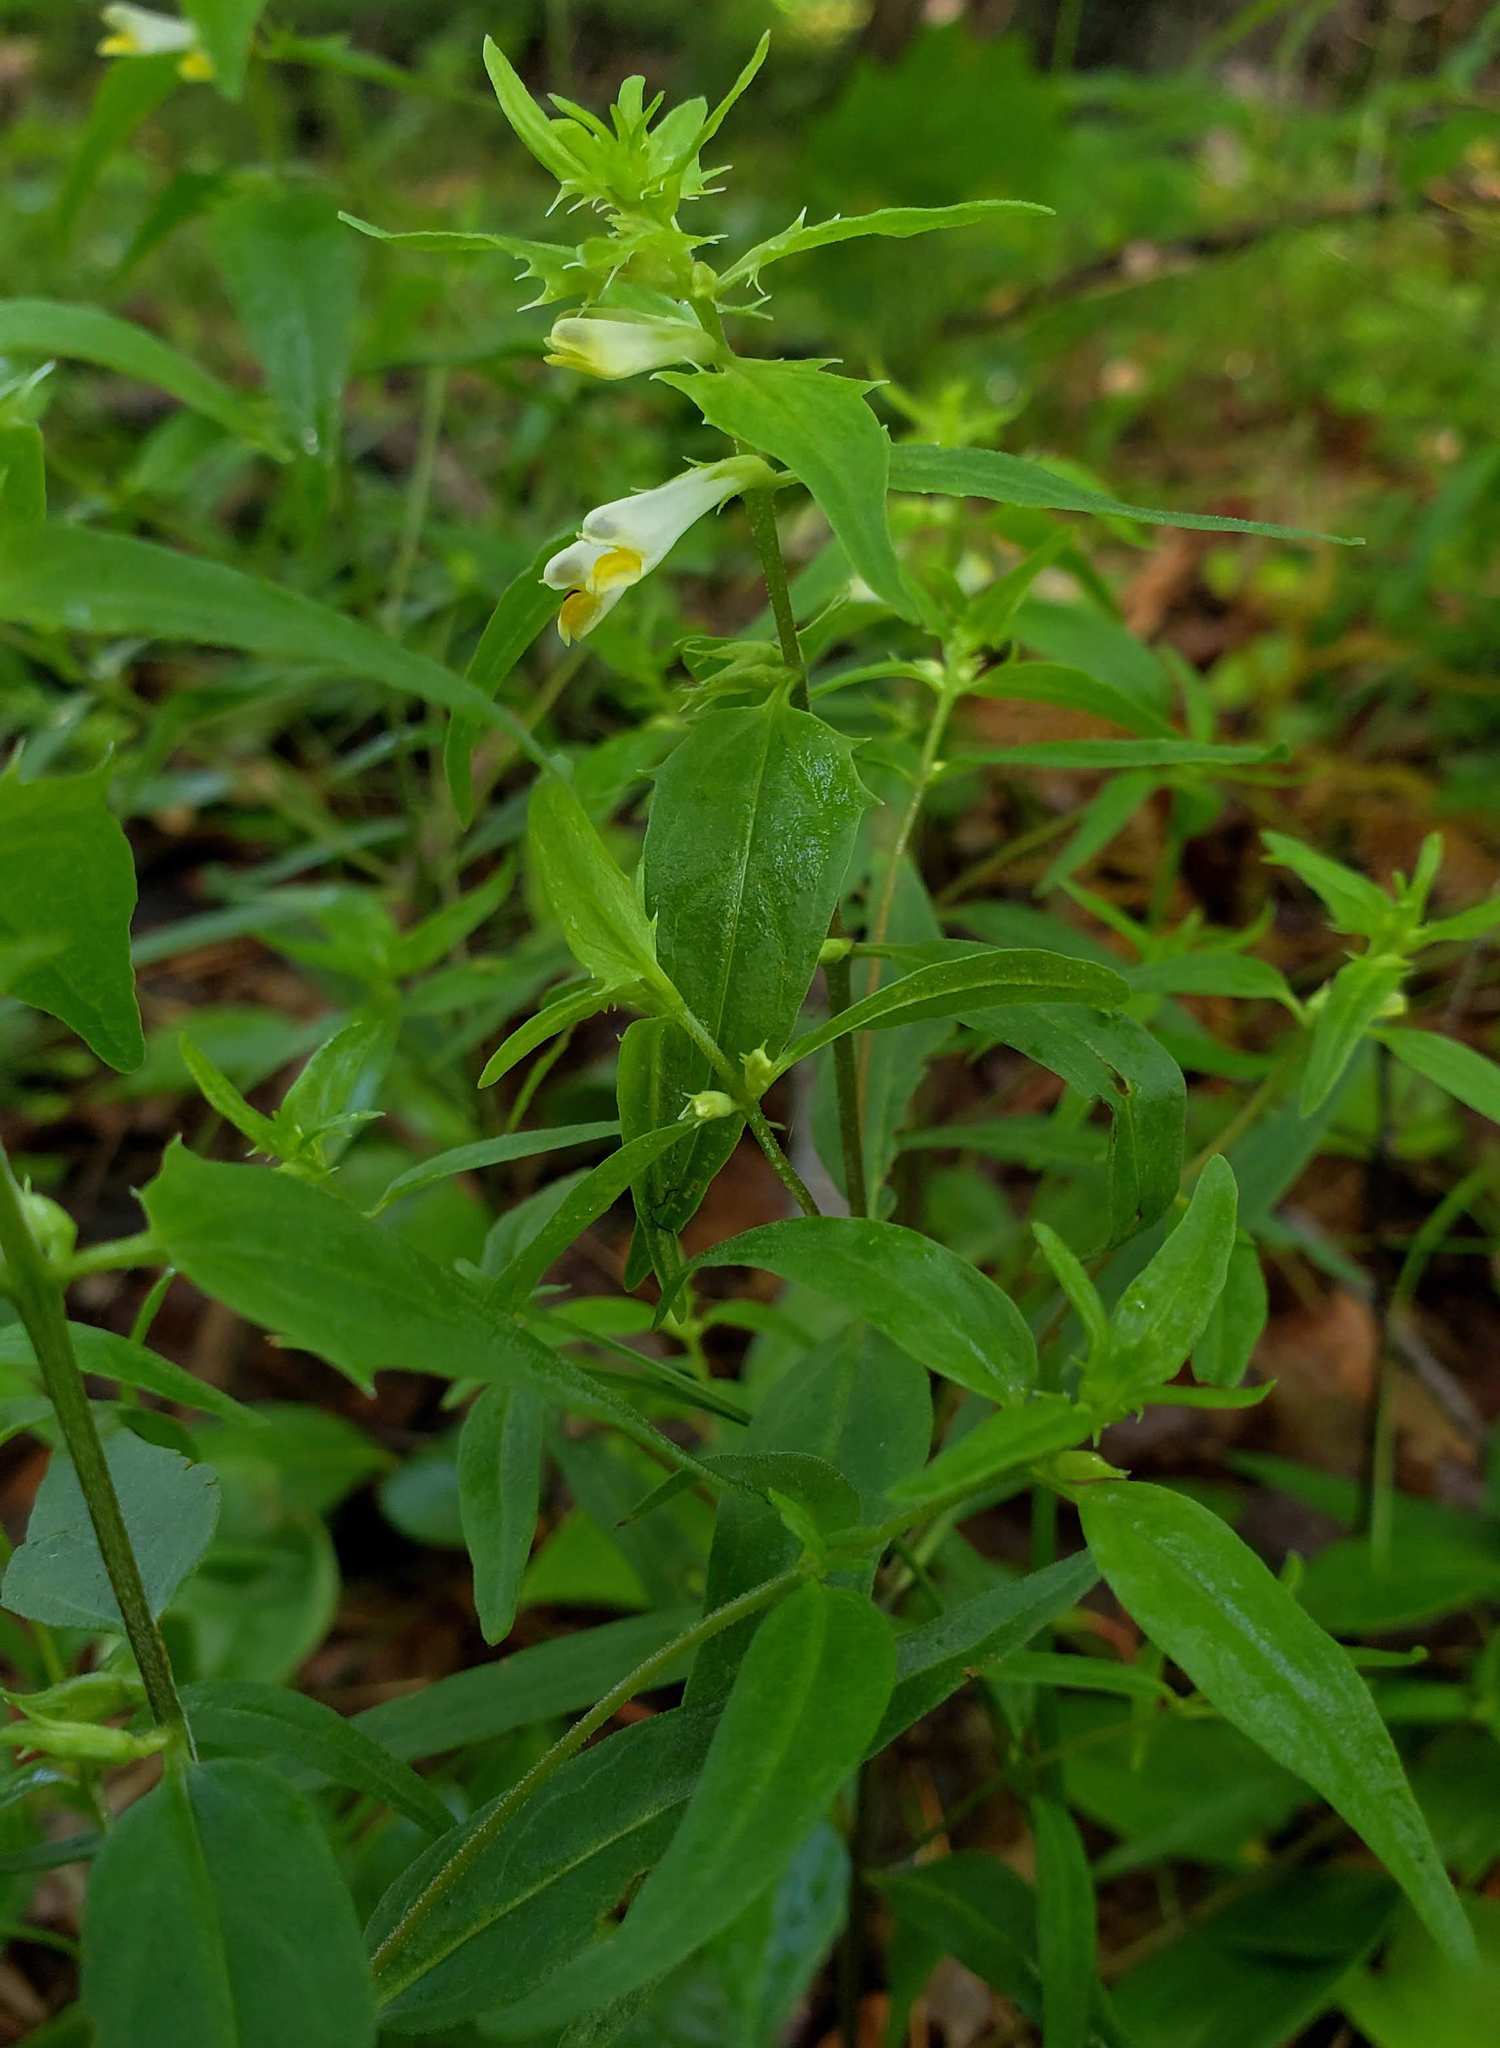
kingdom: Plantae
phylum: Tracheophyta
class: Magnoliopsida
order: Lamiales
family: Orobanchaceae
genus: Melampyrum
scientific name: Melampyrum lineare
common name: American cow-wheat
